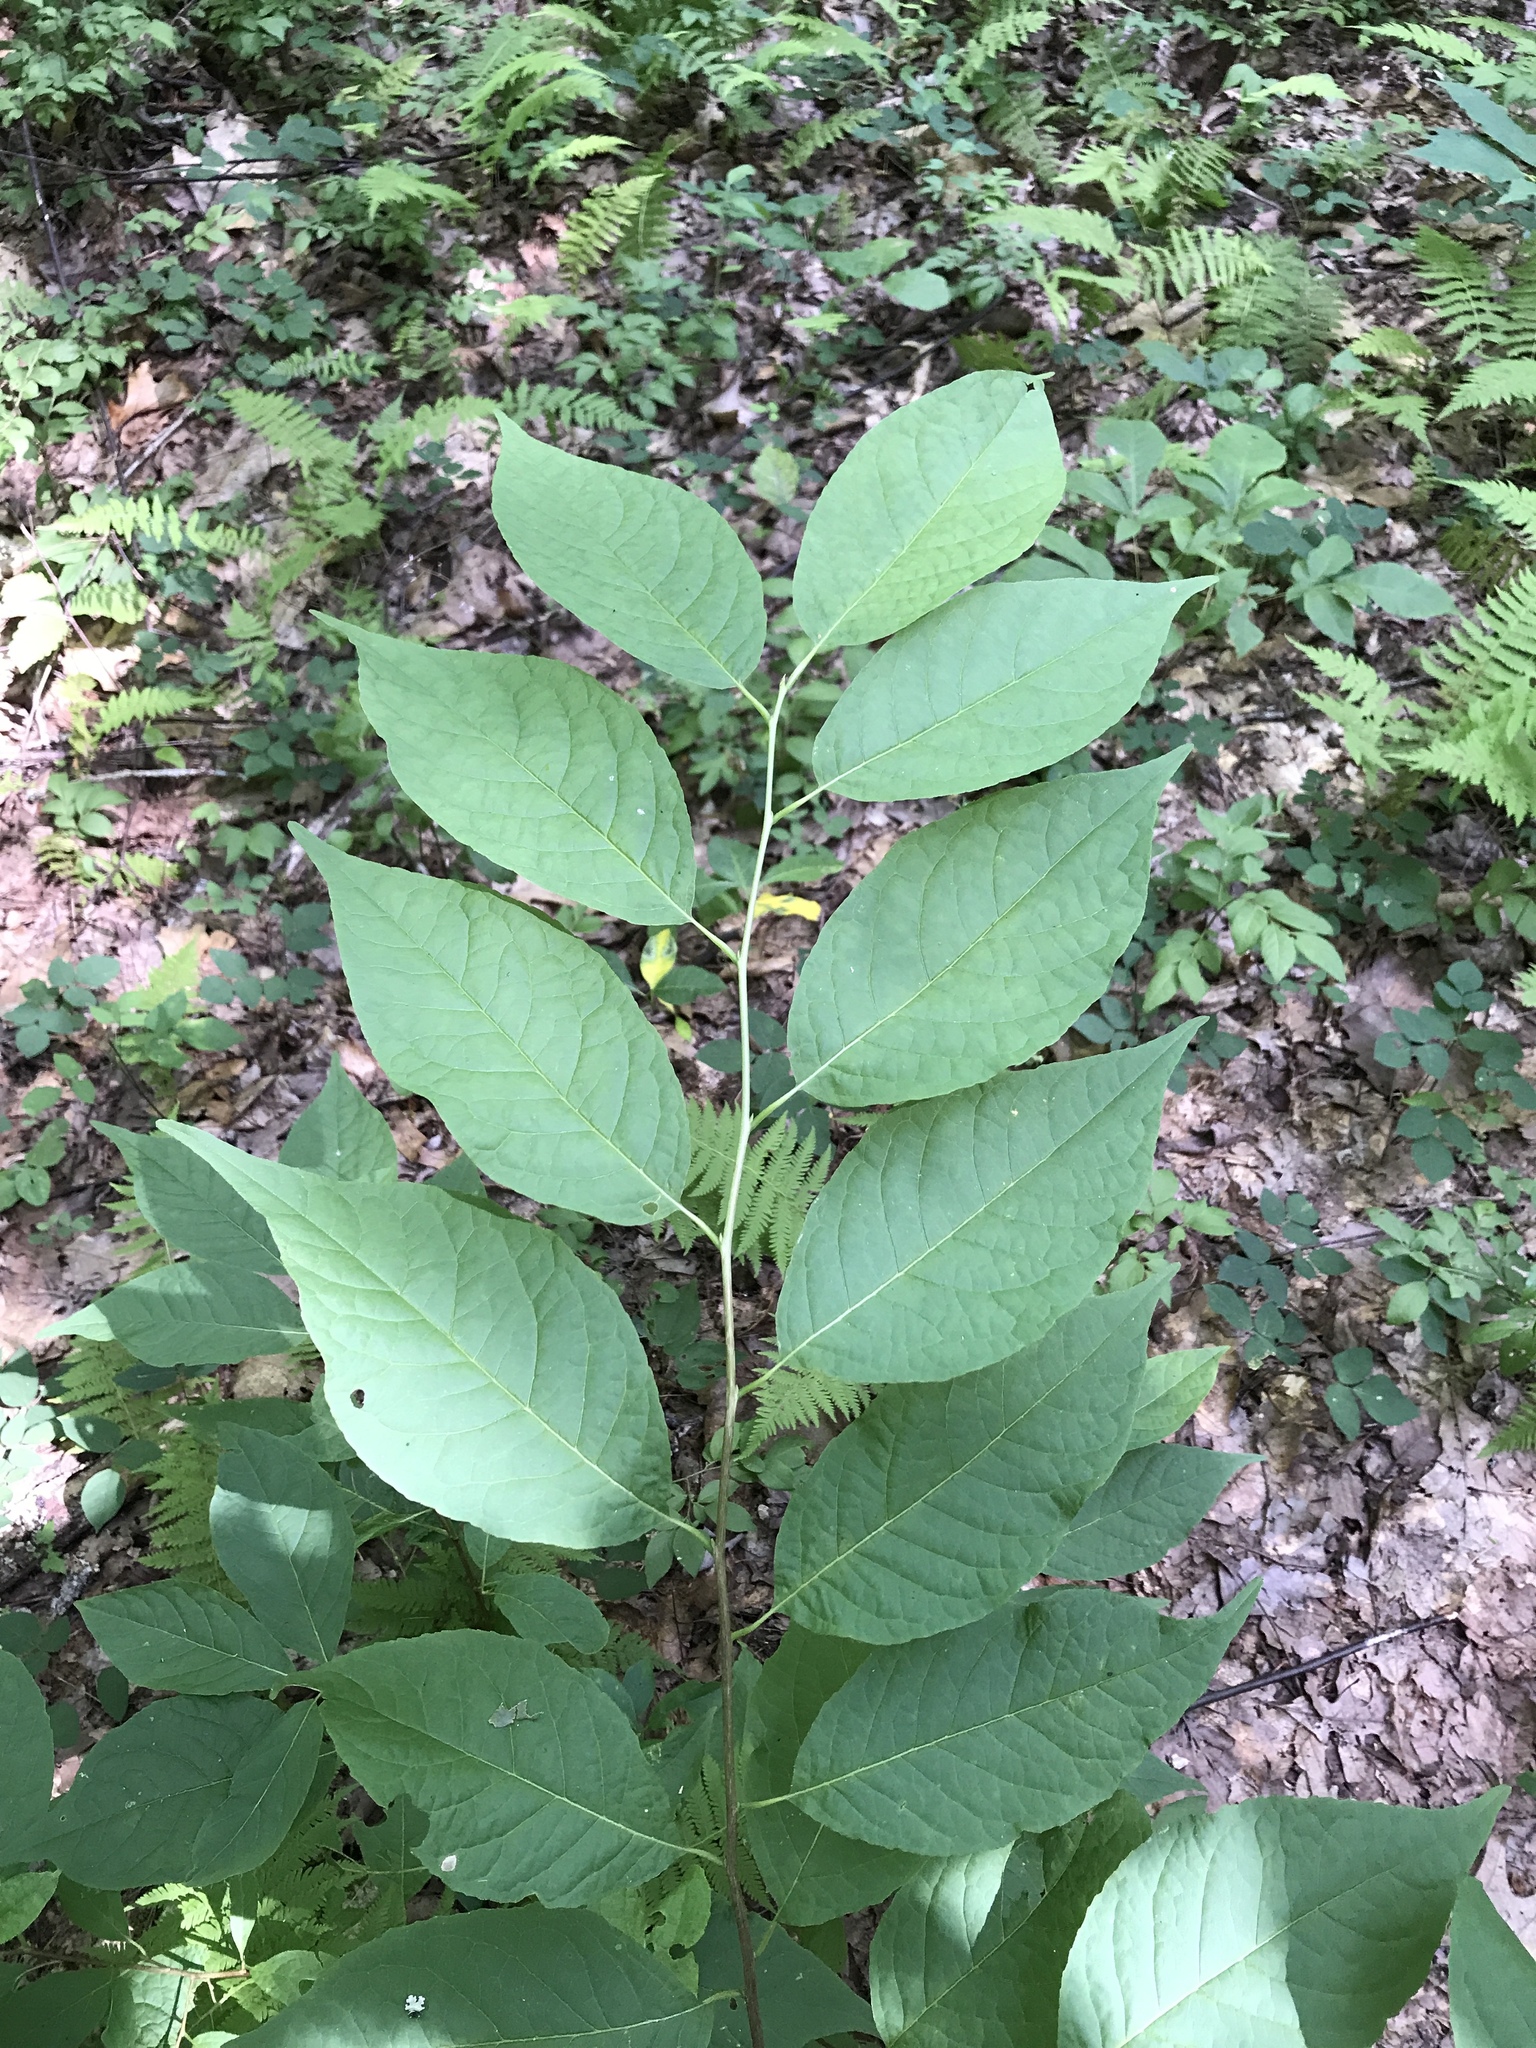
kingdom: Plantae
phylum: Tracheophyta
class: Magnoliopsida
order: Ericales
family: Styracaceae
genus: Halesia
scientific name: Halesia tetraptera
